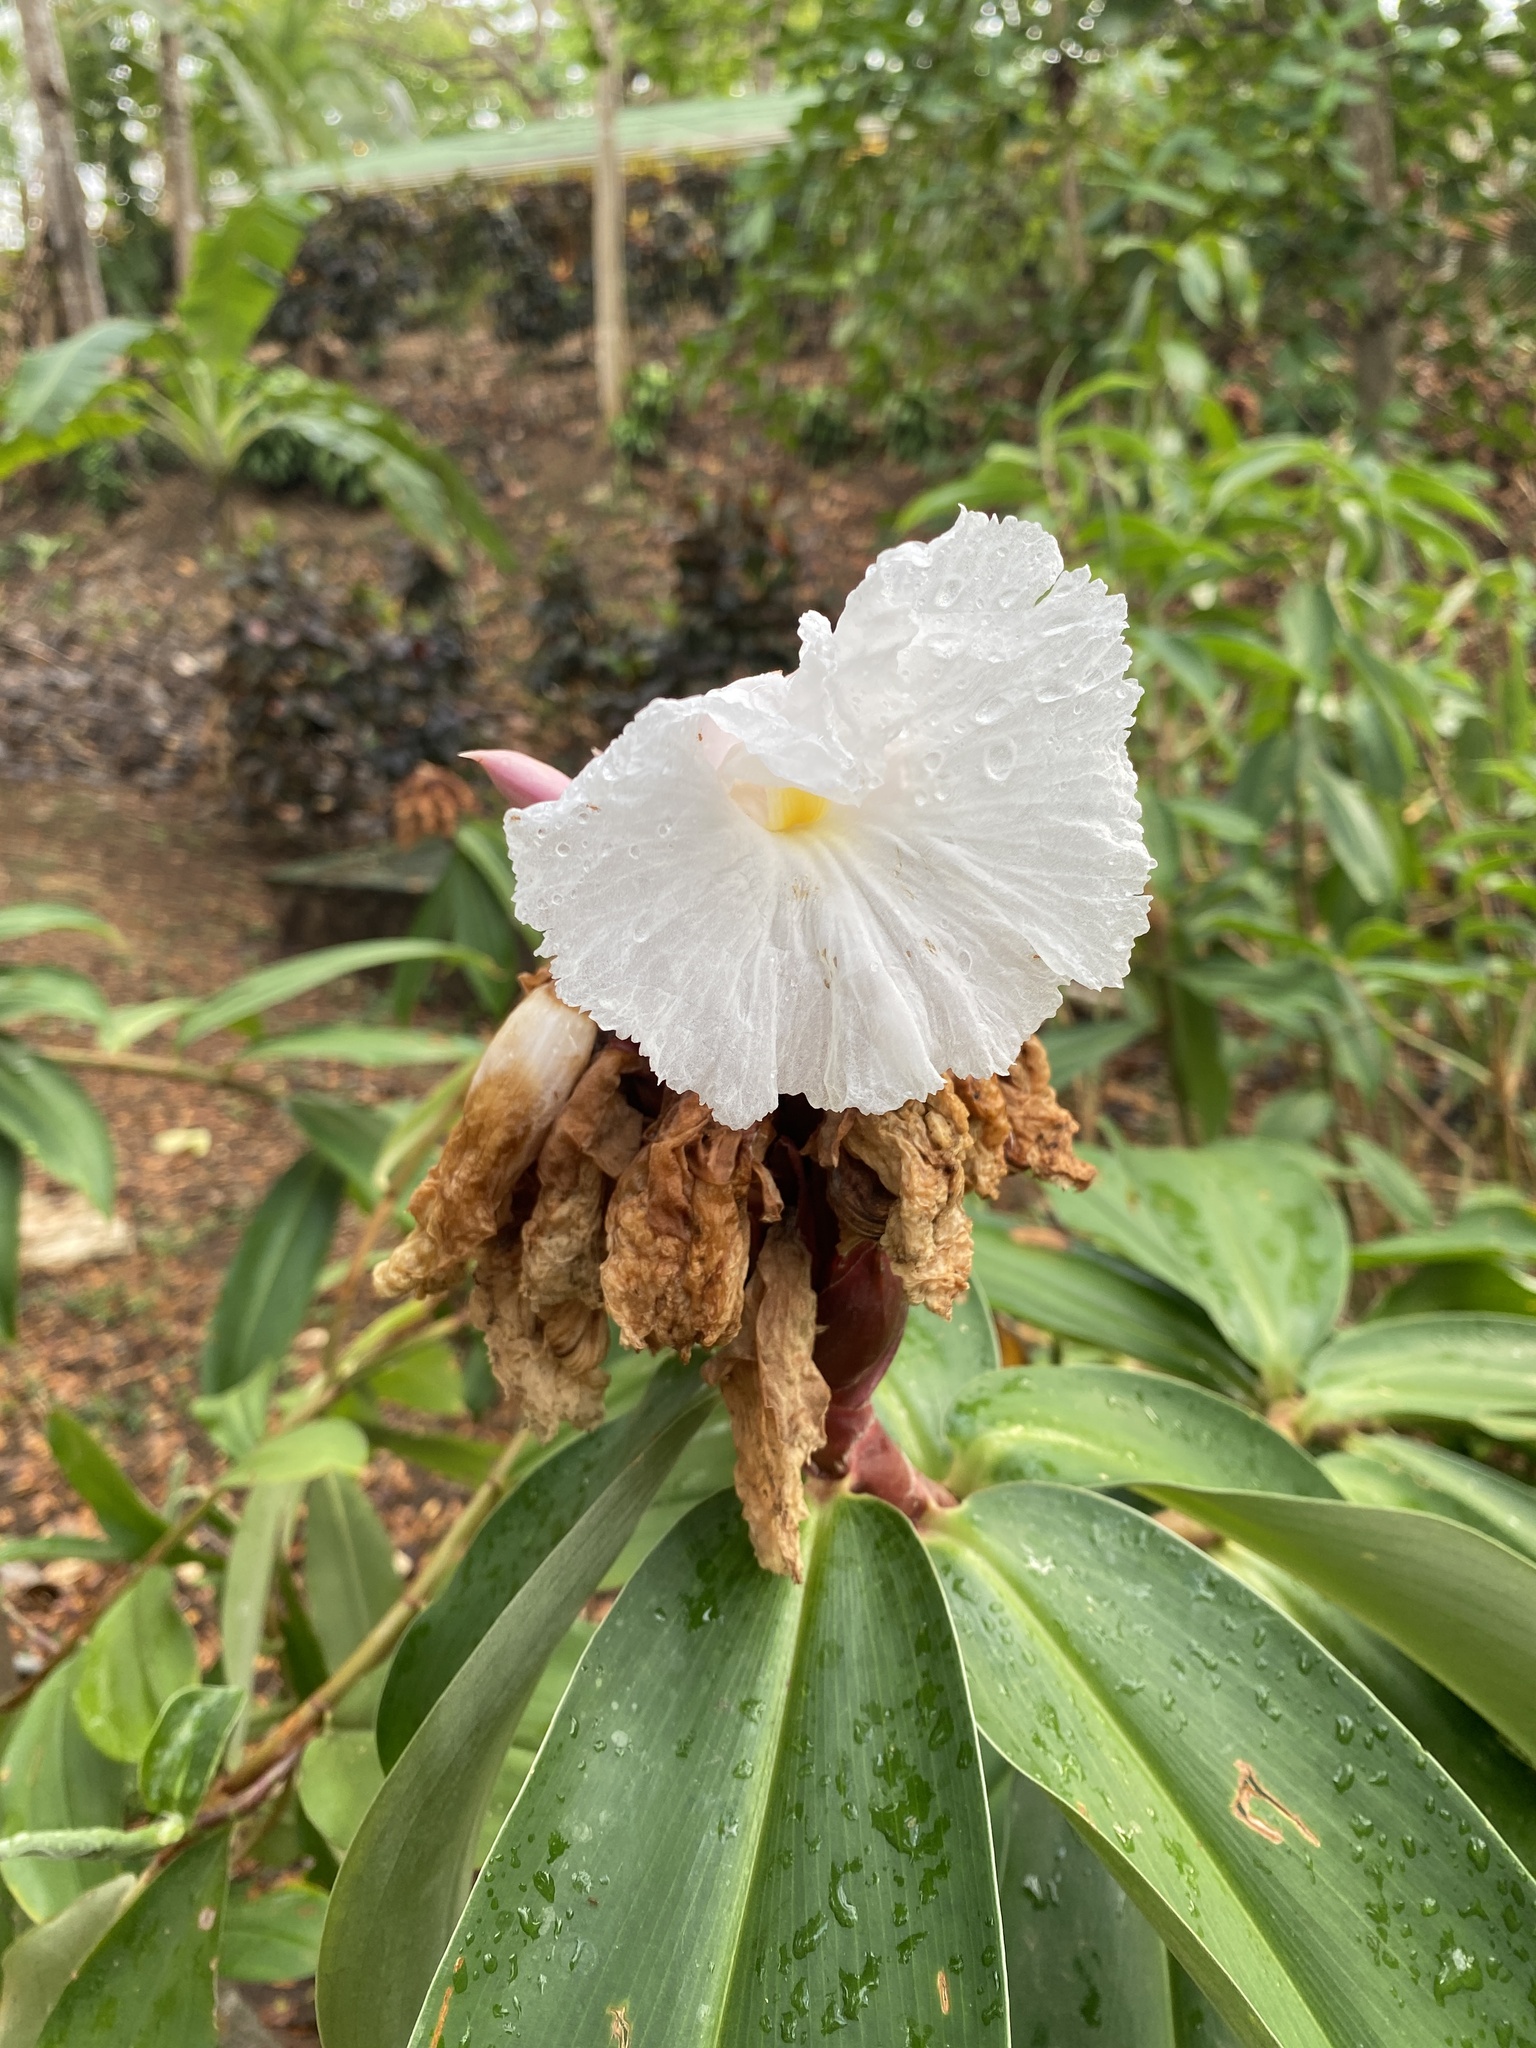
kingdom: Plantae
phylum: Tracheophyta
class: Liliopsida
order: Zingiberales
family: Costaceae
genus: Hellenia
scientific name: Hellenia speciosa
